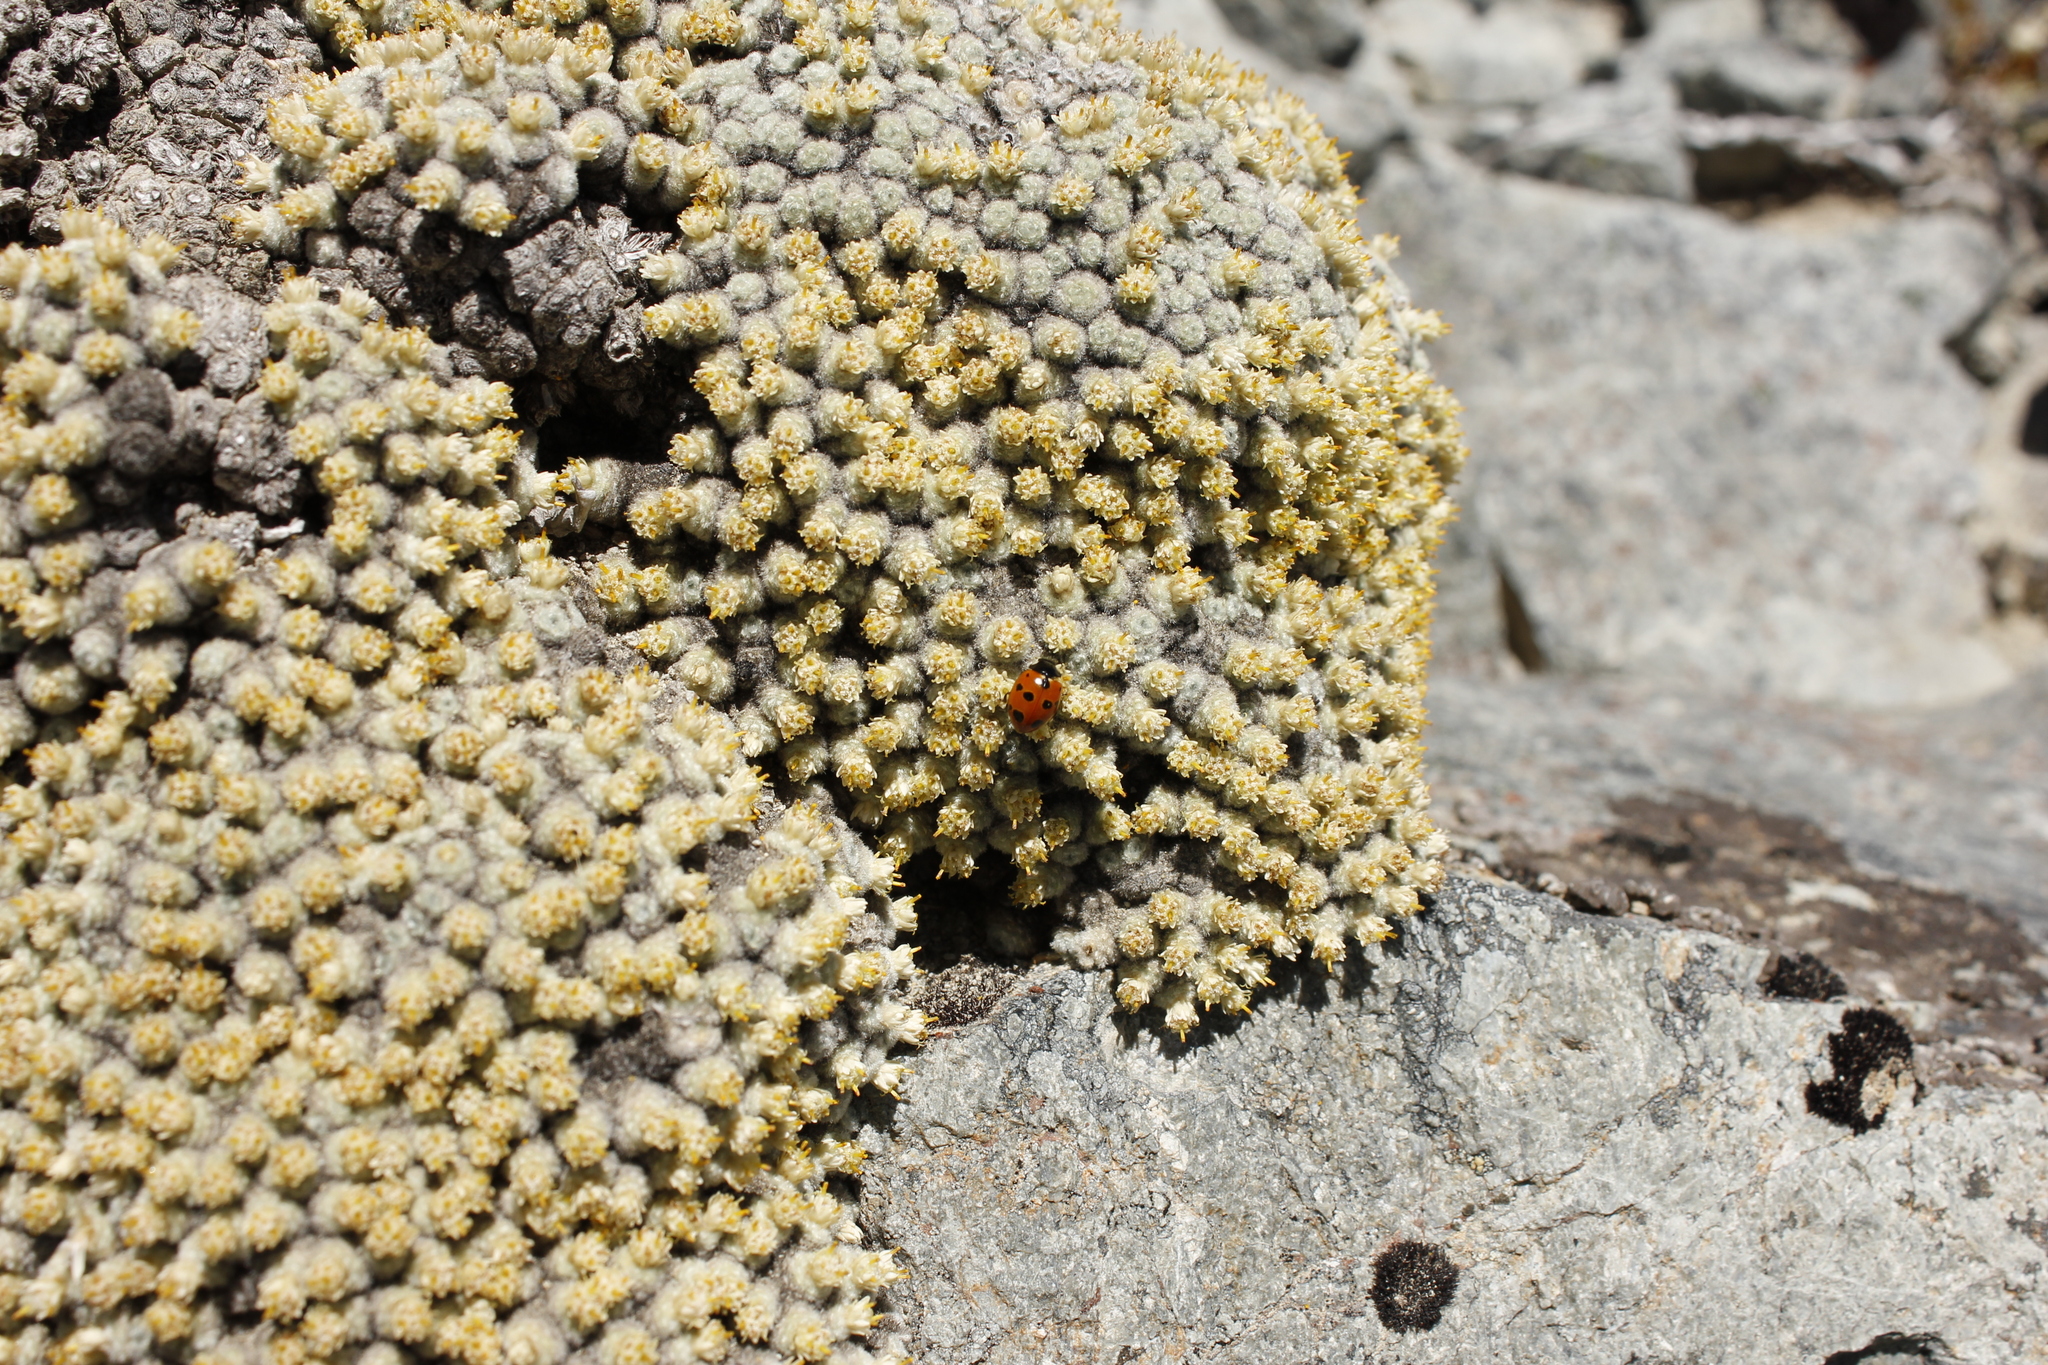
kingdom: Animalia
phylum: Arthropoda
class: Insecta
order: Coleoptera
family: Coccinellidae
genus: Coccinella
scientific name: Coccinella undecimpunctata
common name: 11-spot ladybird
